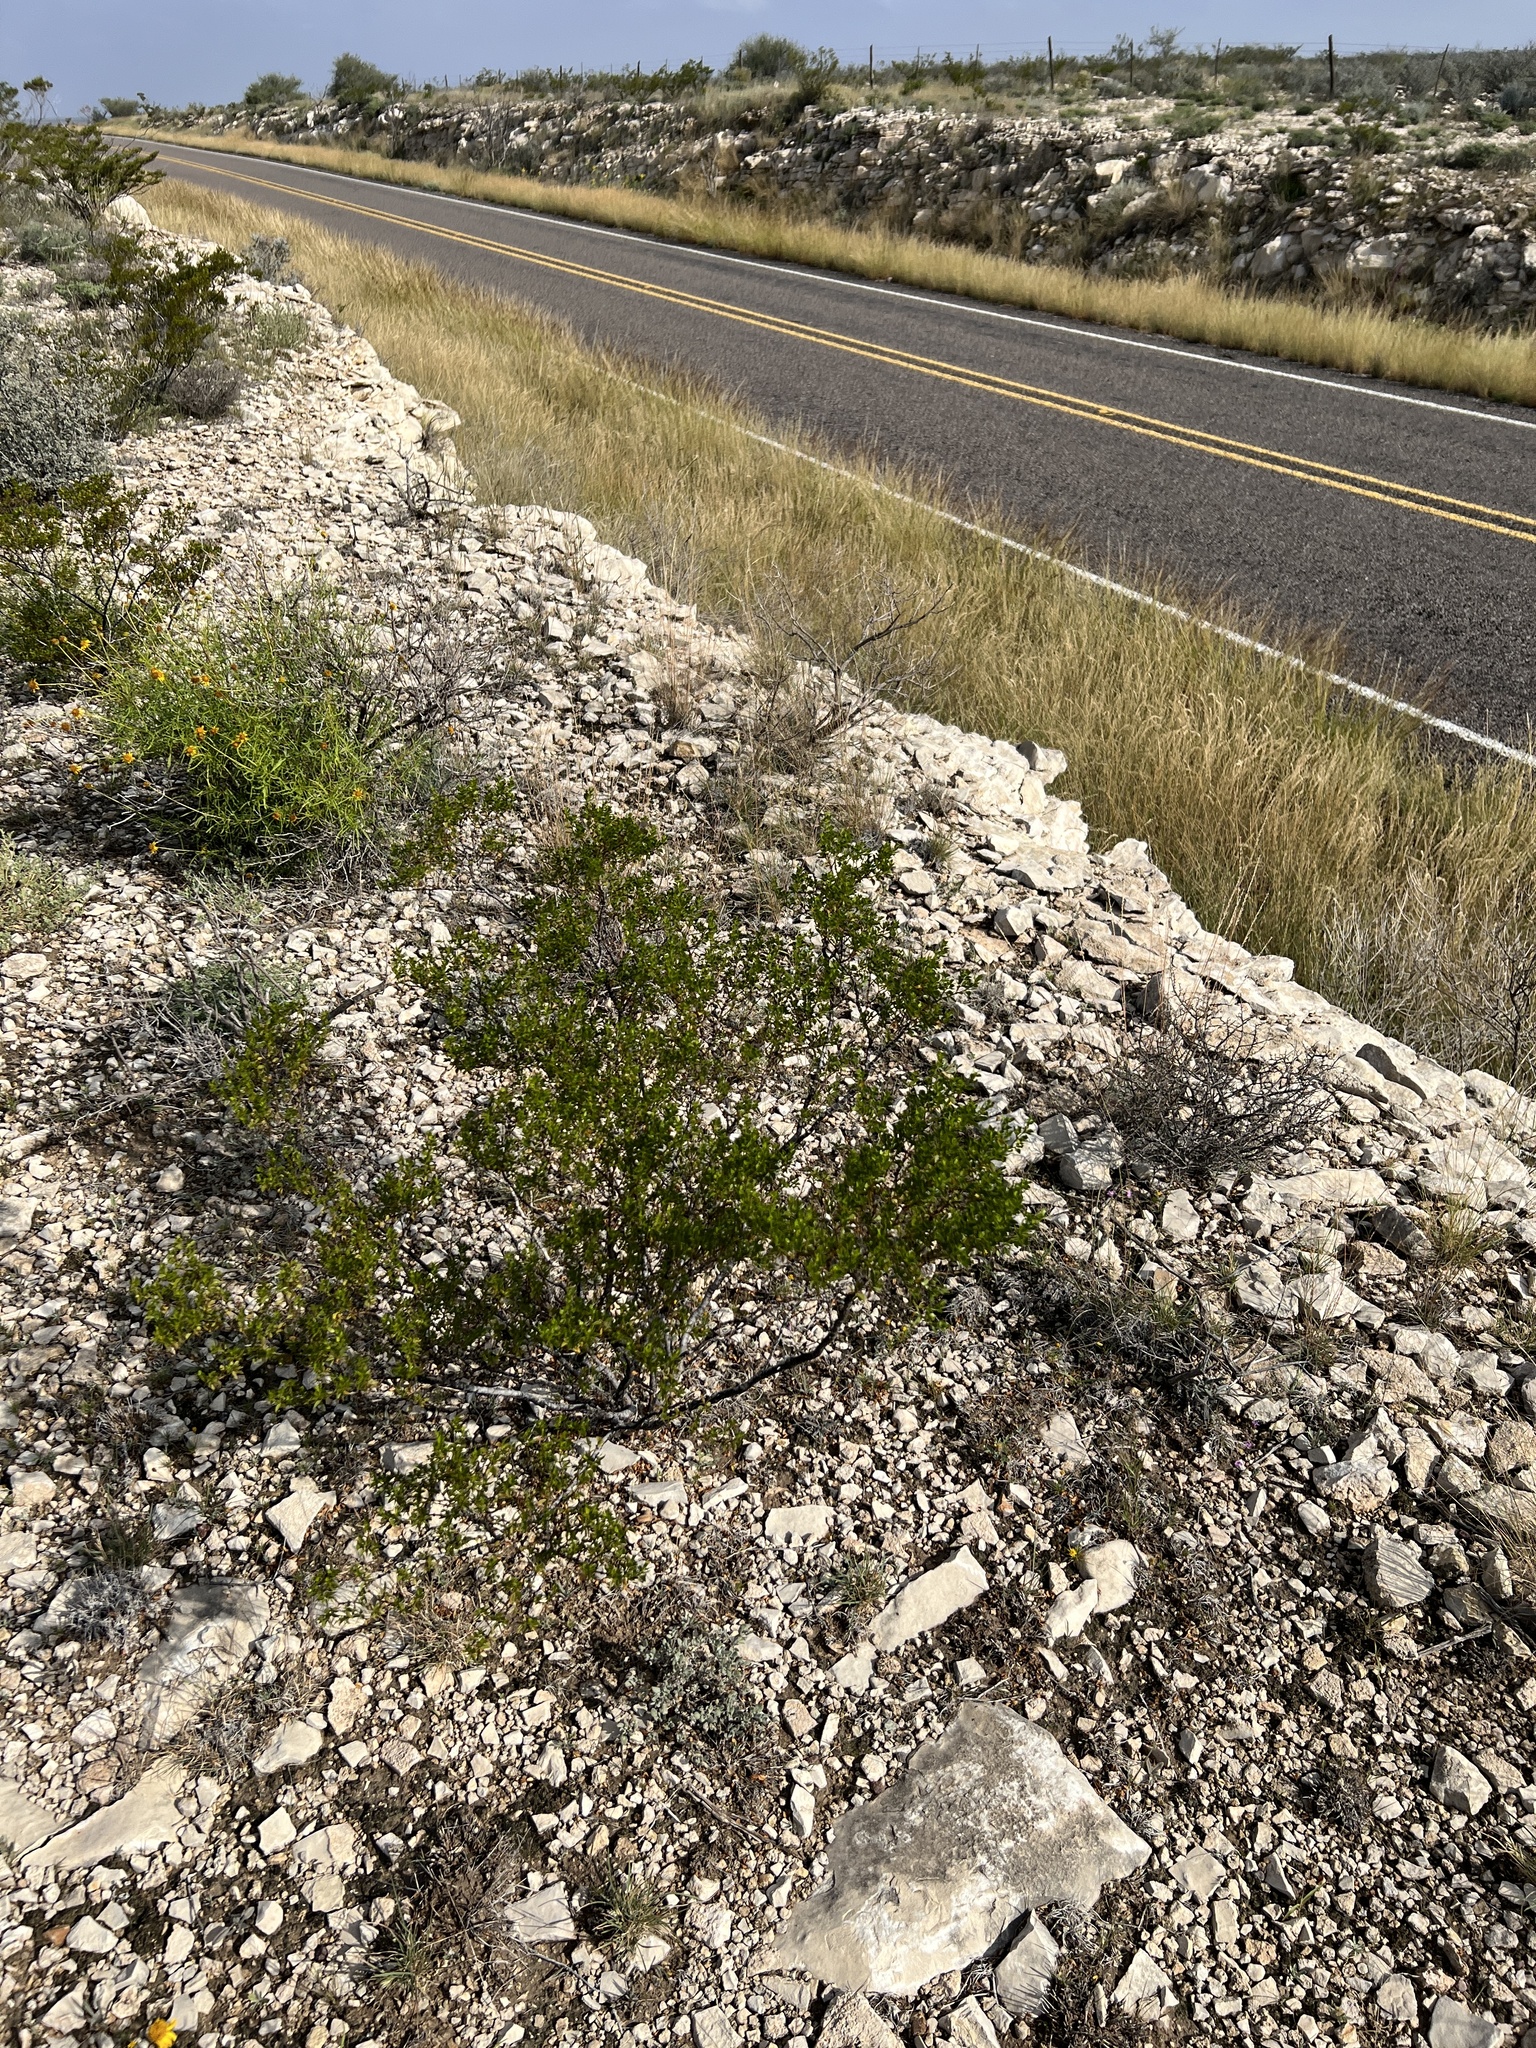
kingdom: Plantae
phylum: Tracheophyta
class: Magnoliopsida
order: Zygophyllales
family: Zygophyllaceae
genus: Larrea
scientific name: Larrea tridentata
